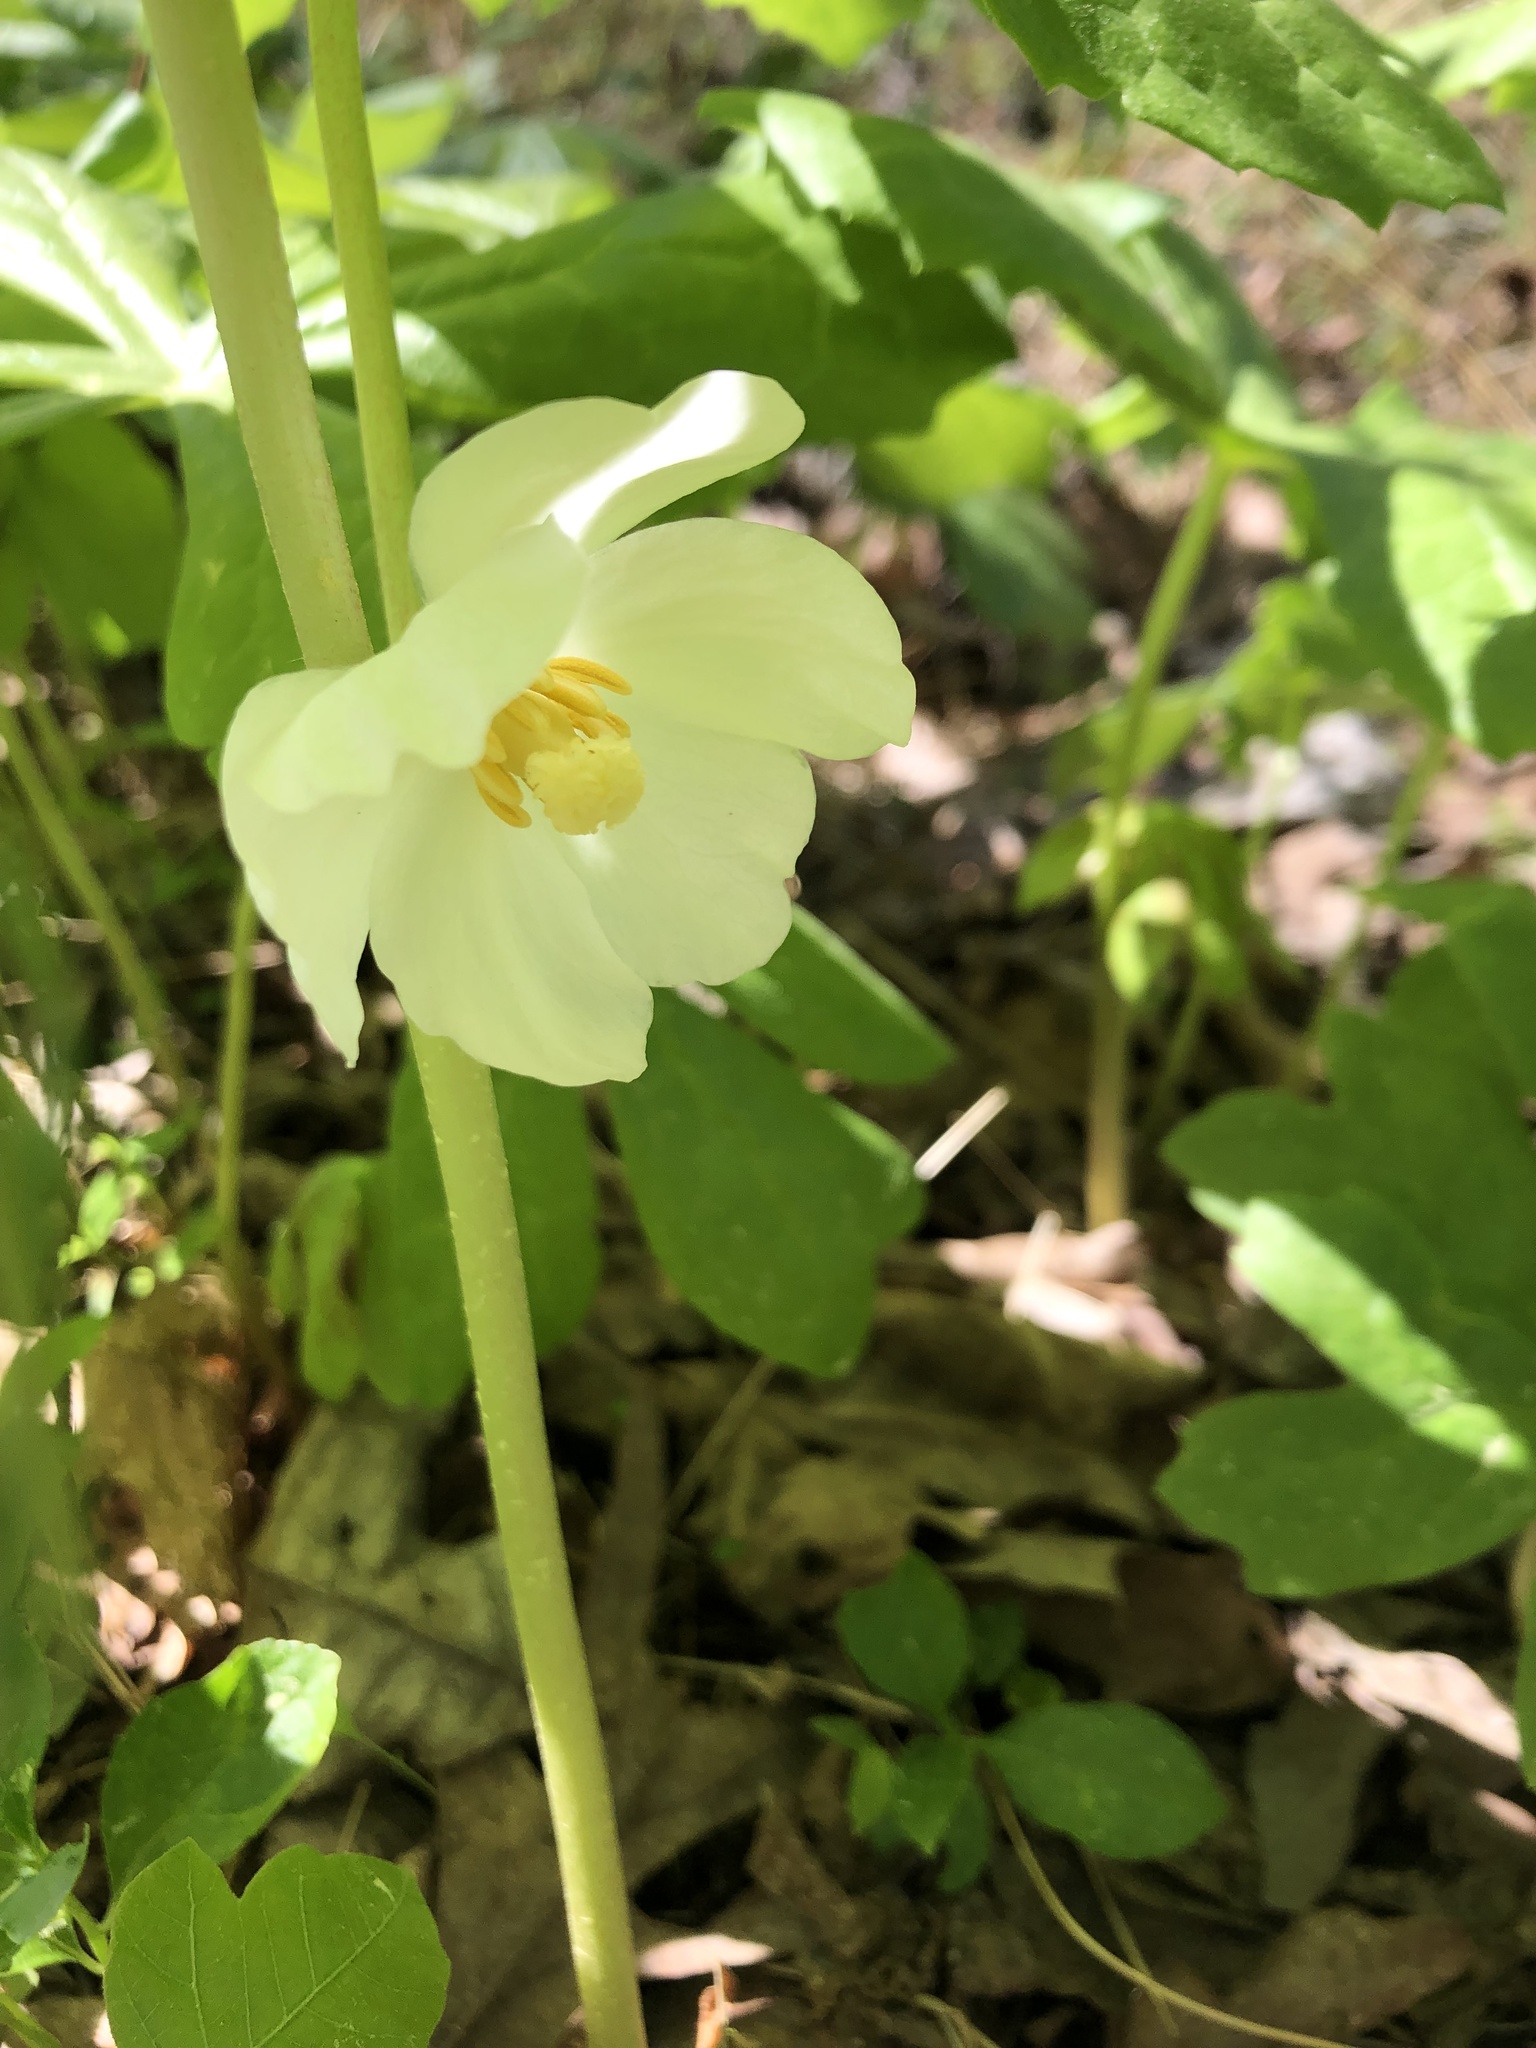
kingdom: Plantae
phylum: Tracheophyta
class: Magnoliopsida
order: Ranunculales
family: Berberidaceae
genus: Podophyllum
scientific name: Podophyllum peltatum
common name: Wild mandrake
